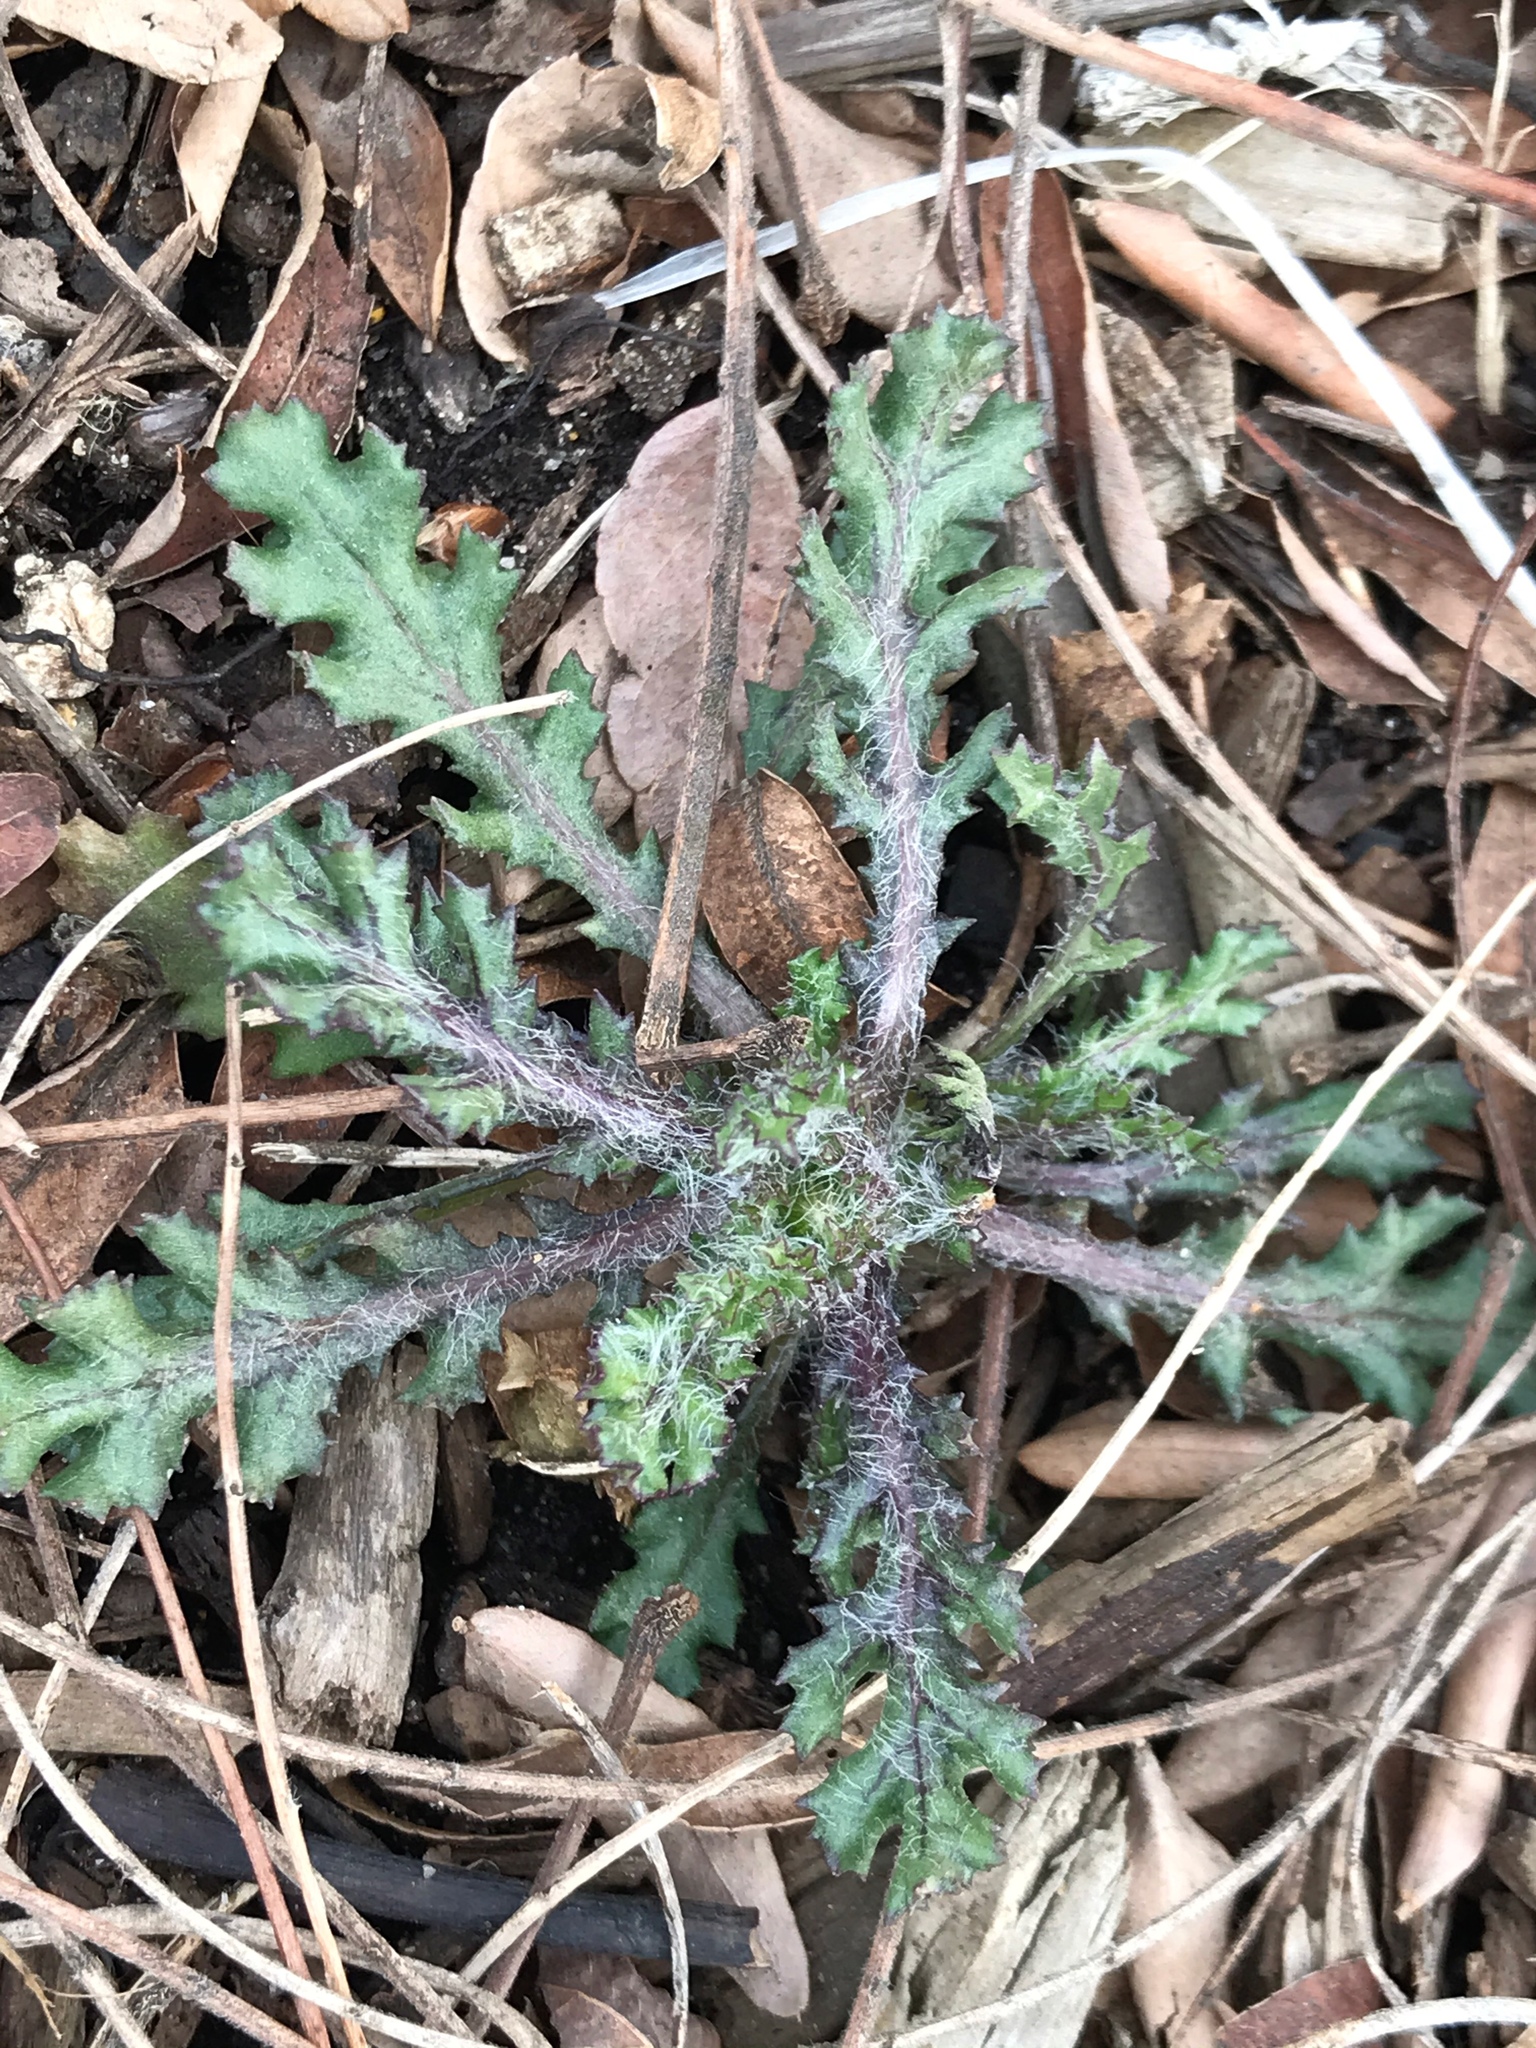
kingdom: Plantae
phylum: Tracheophyta
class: Magnoliopsida
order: Asterales
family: Asteraceae
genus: Senecio
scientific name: Senecio vulgaris
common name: Old-man-in-the-spring
